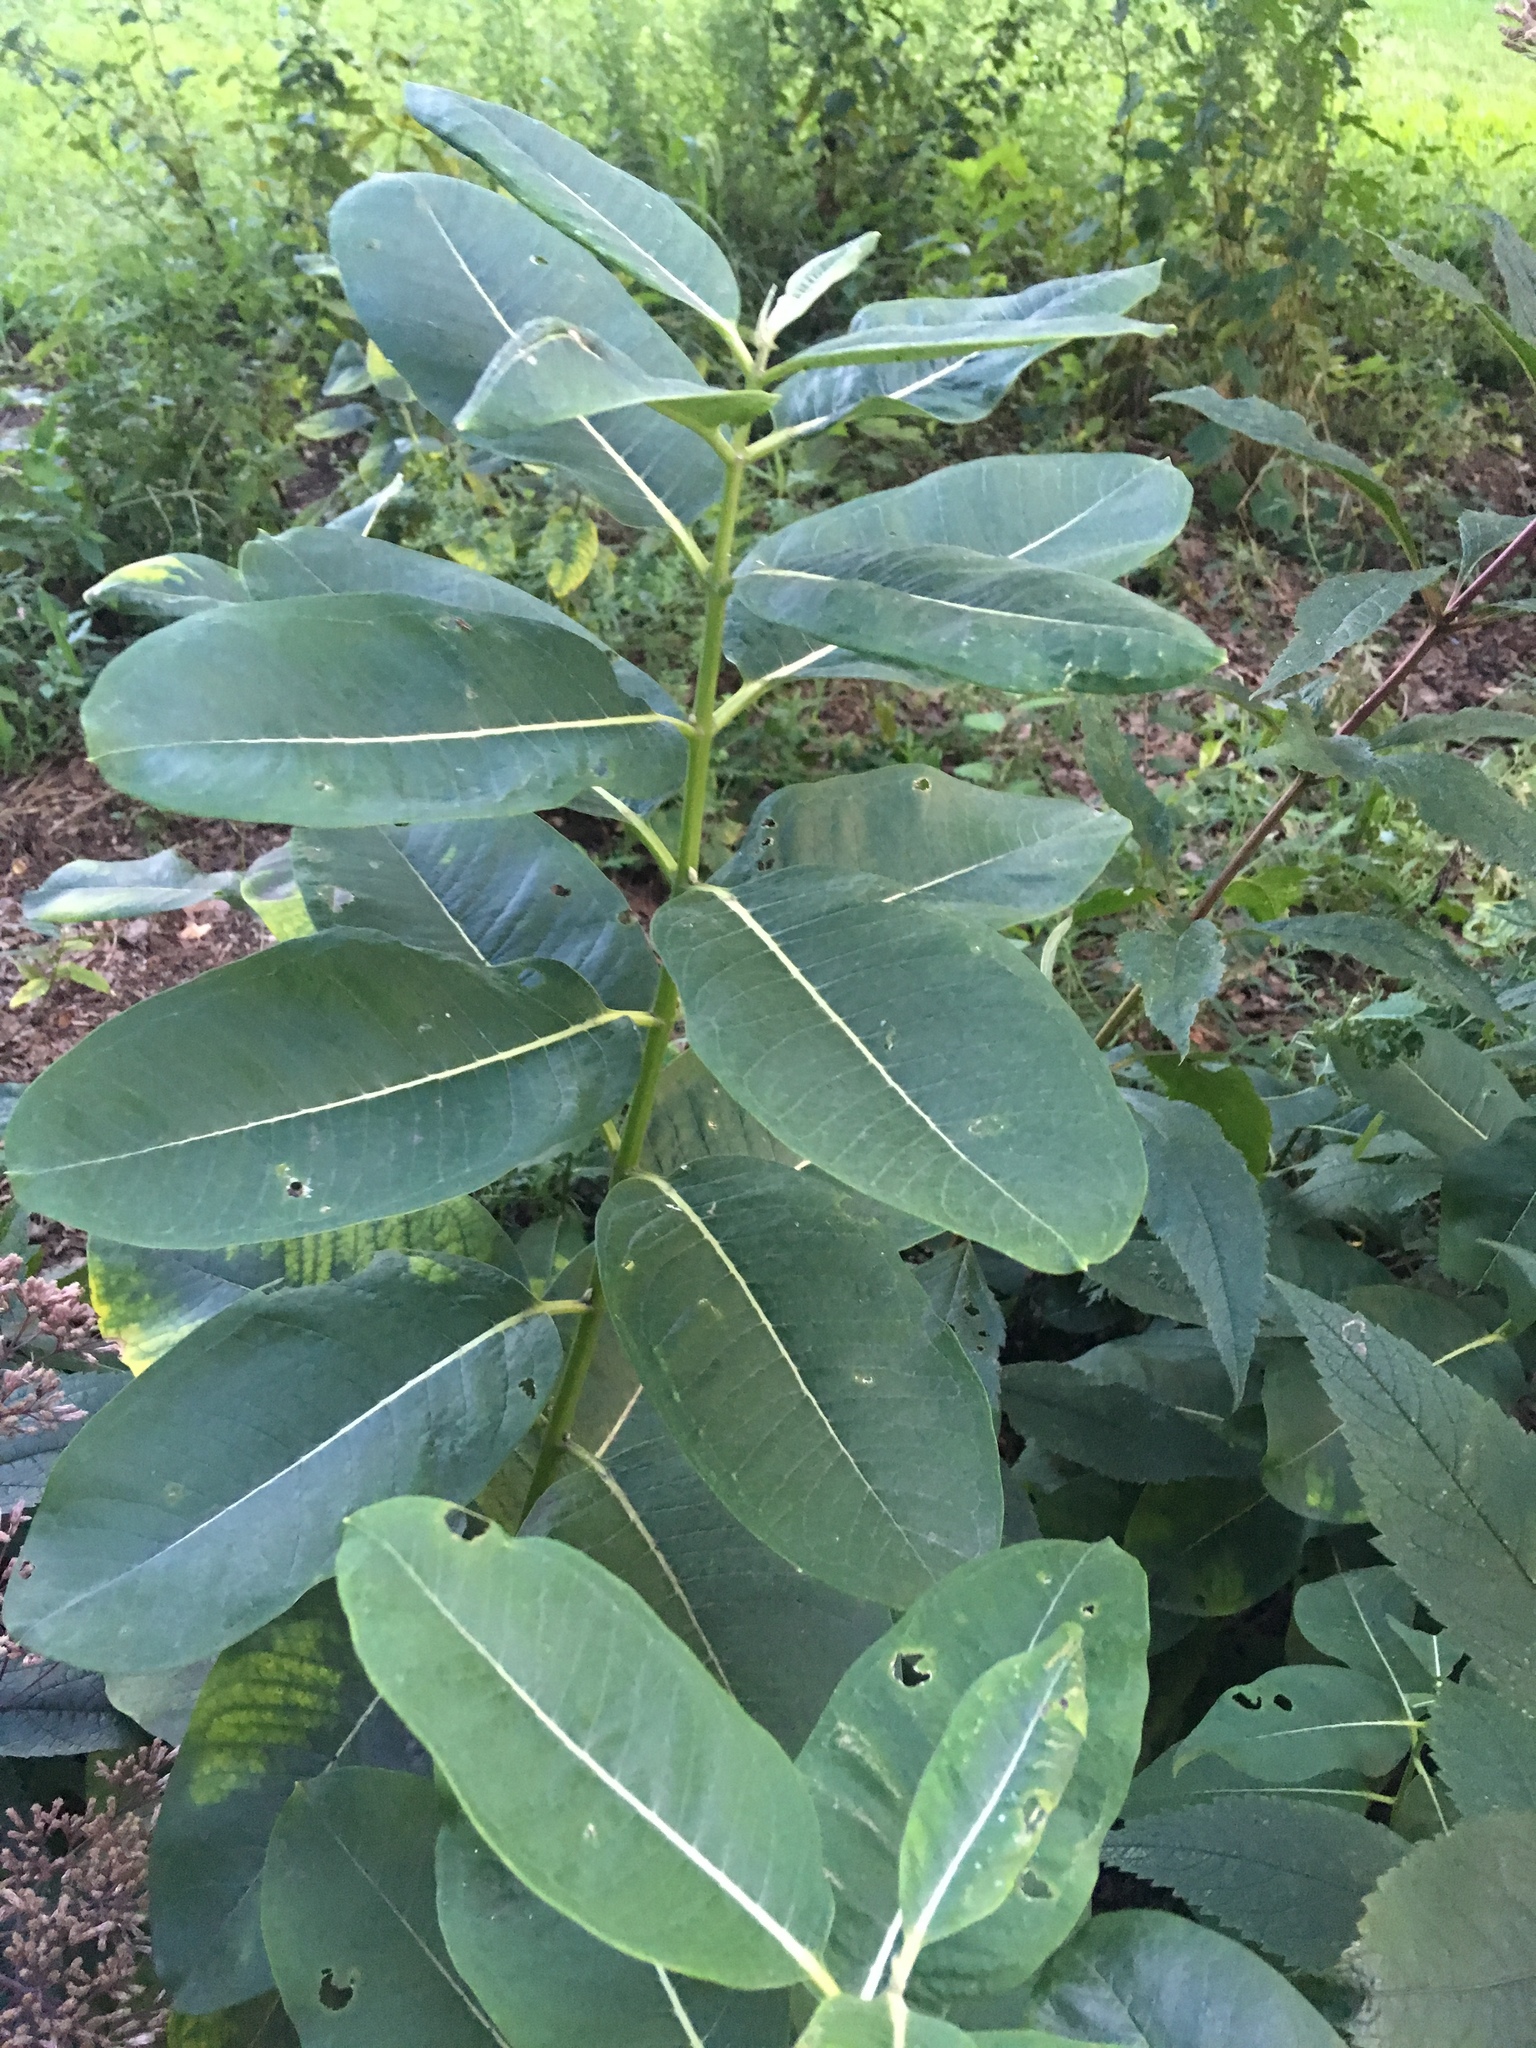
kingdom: Plantae
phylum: Tracheophyta
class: Magnoliopsida
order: Gentianales
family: Apocynaceae
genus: Asclepias
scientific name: Asclepias syriaca
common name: Common milkweed
